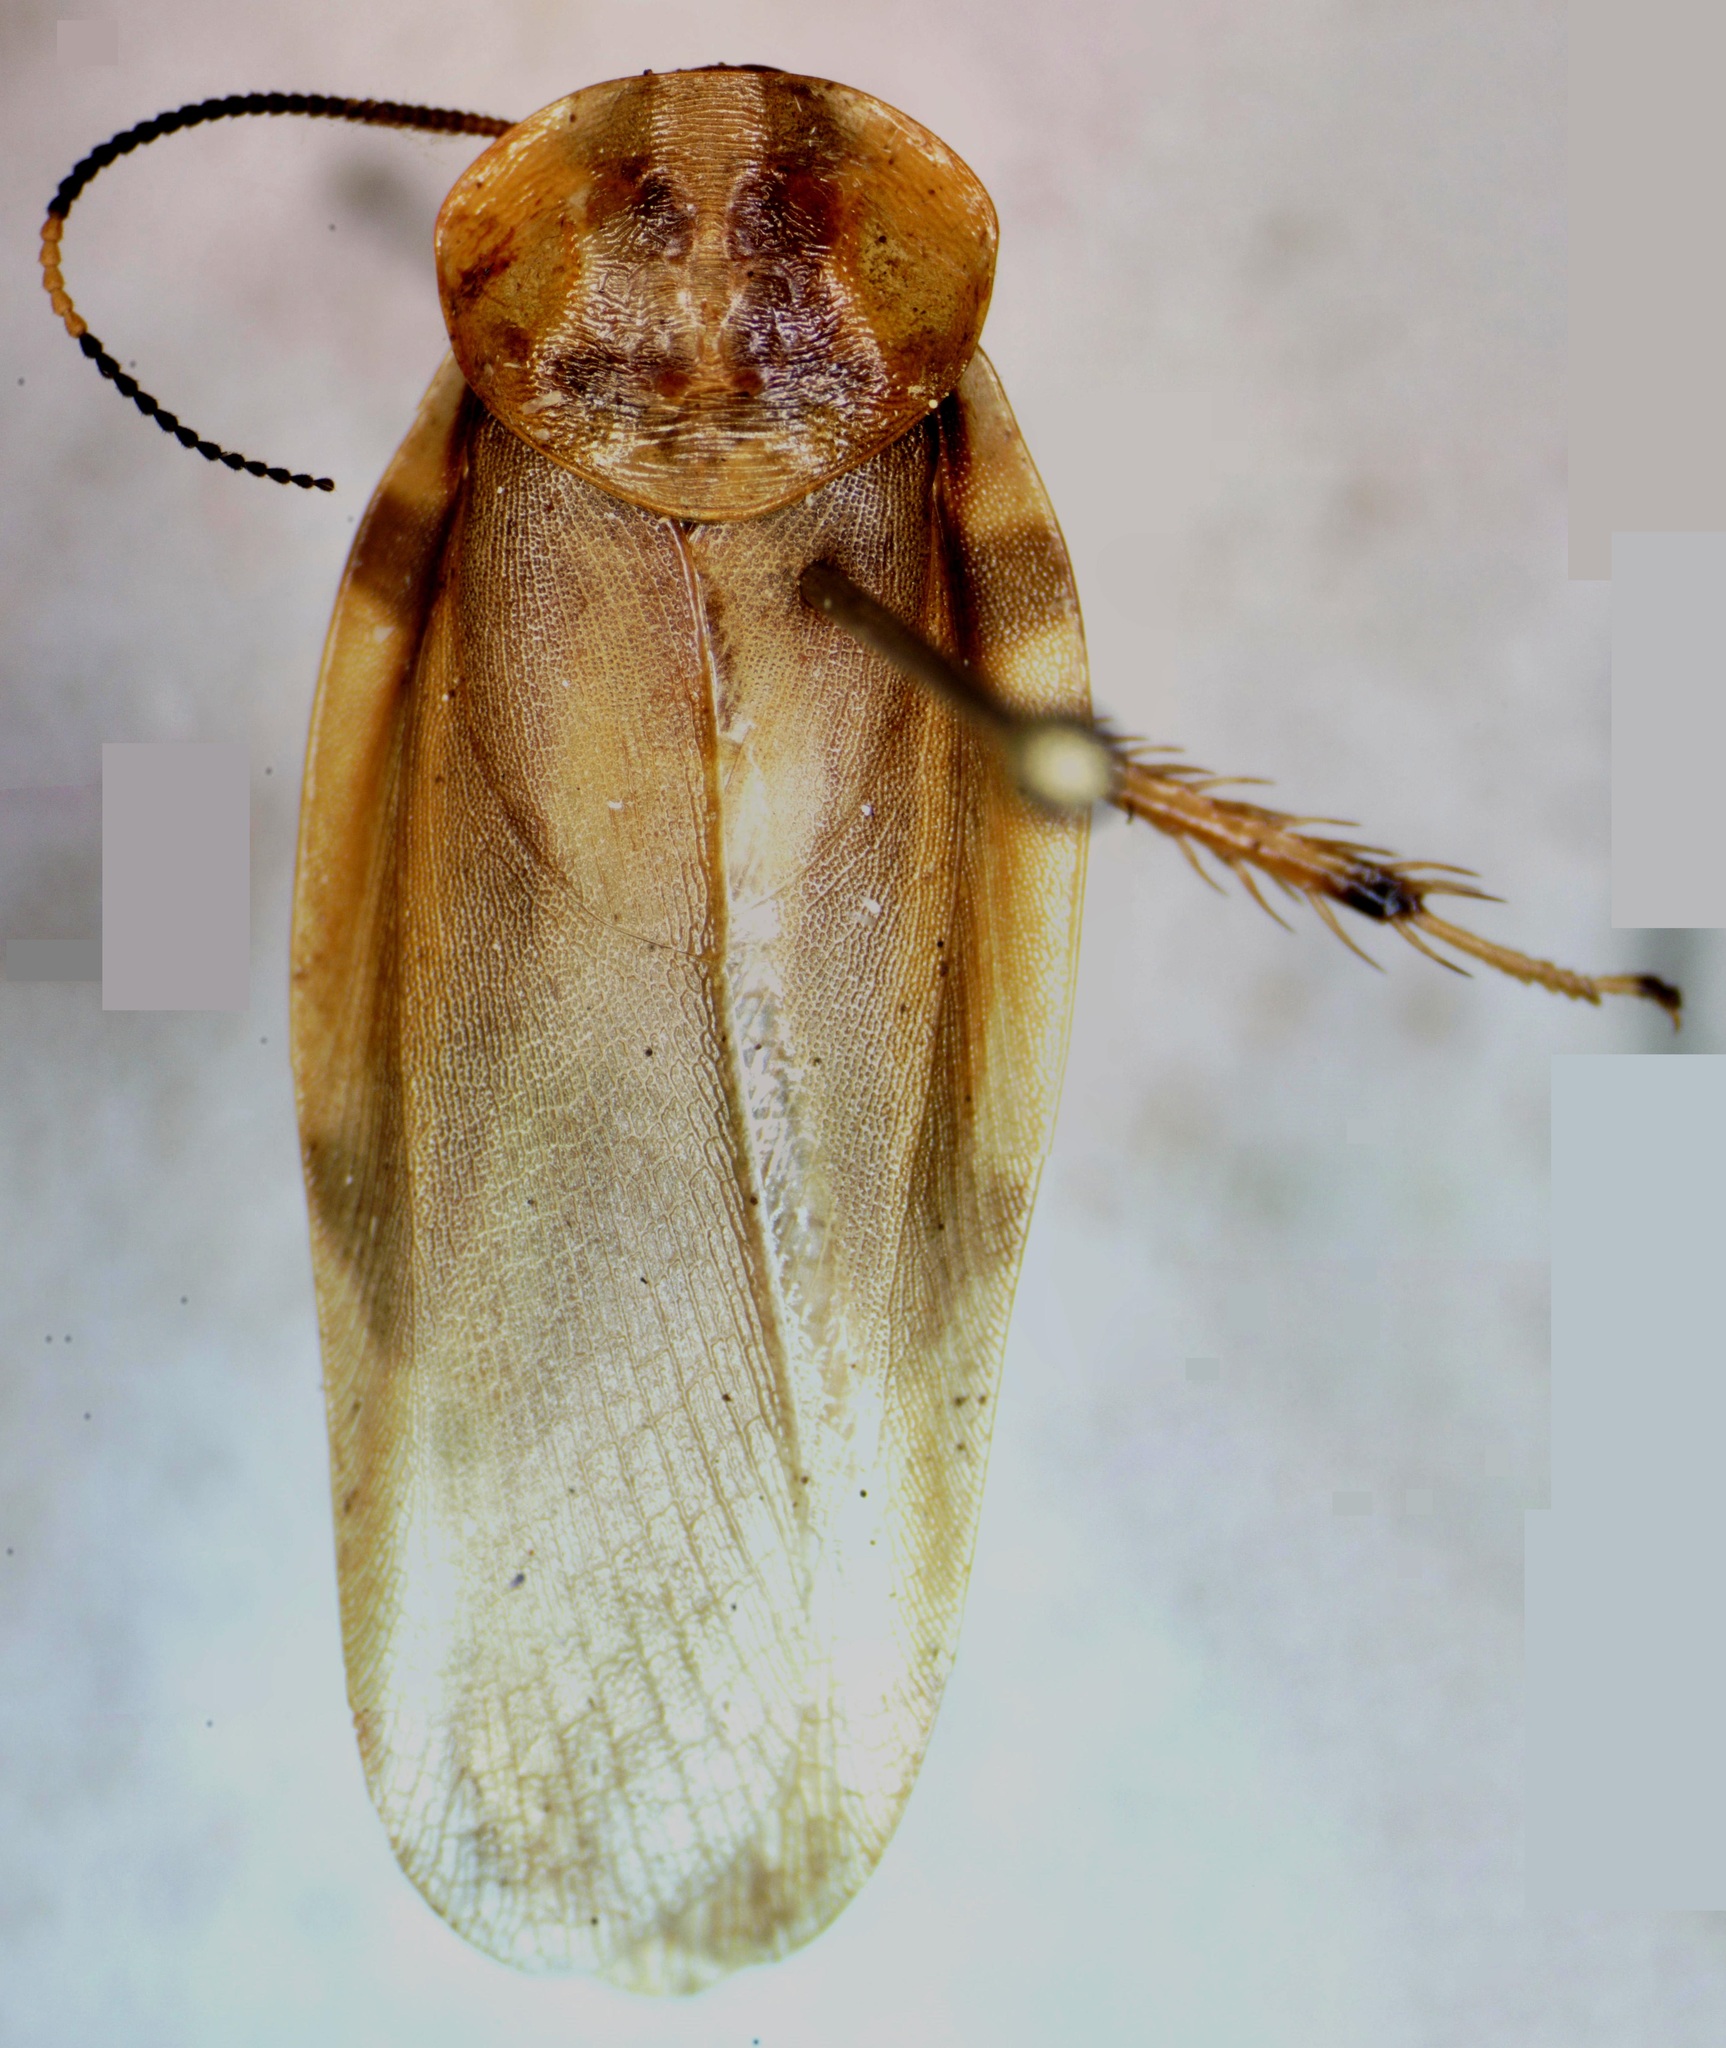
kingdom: Animalia
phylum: Arthropoda
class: Insecta
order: Blattodea
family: Blaberidae
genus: Achroblatta
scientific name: Achroblatta luteola
